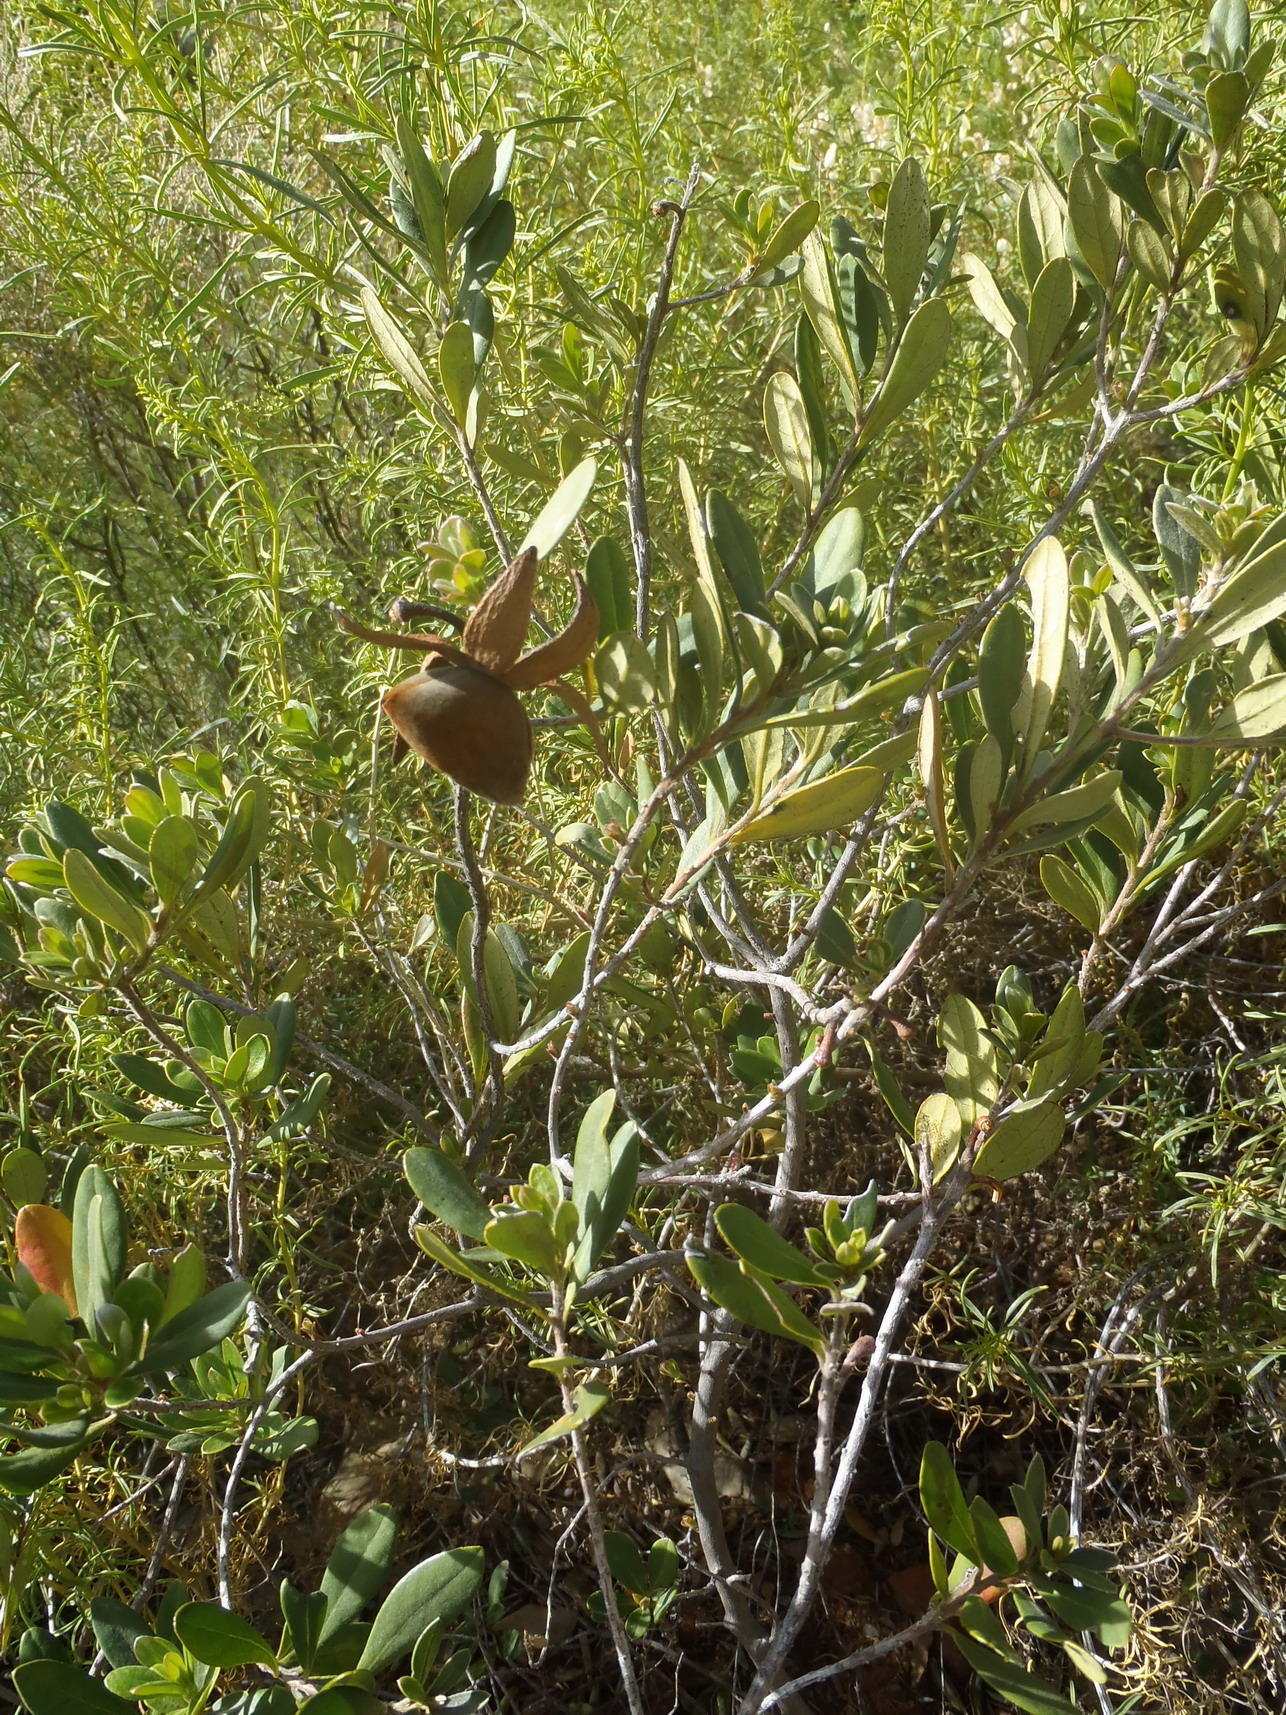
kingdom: Plantae
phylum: Tracheophyta
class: Magnoliopsida
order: Ericales
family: Ebenaceae
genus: Diospyros
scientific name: Diospyros dichrophylla
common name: Common star-apple
